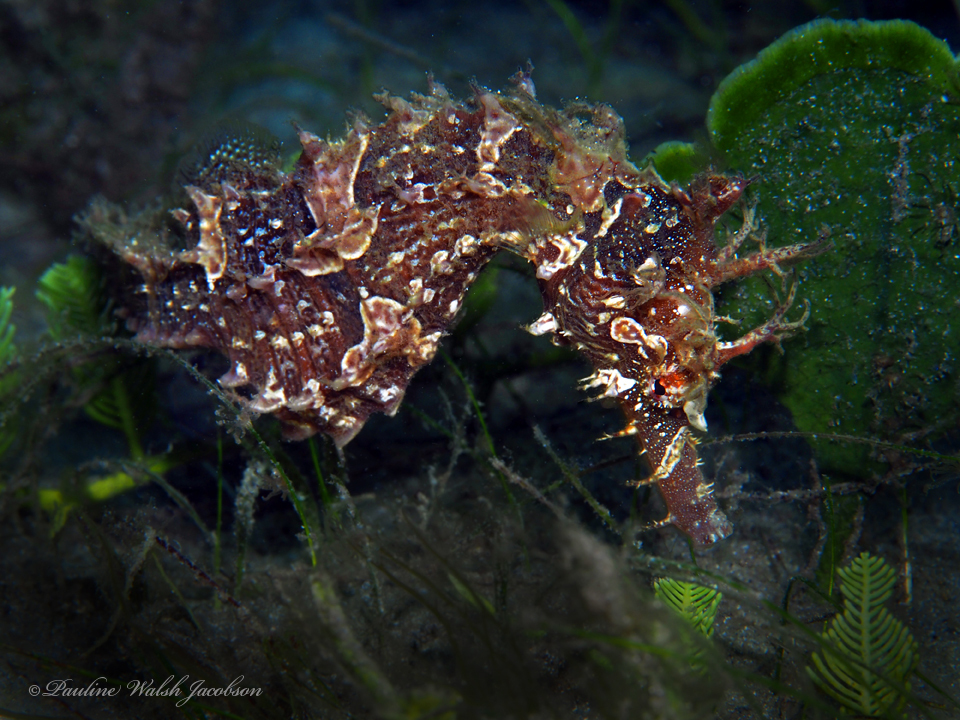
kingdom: Animalia
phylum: Chordata
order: Syngnathiformes
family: Syngnathidae
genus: Hippocampus
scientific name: Hippocampus erectus
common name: Lined seahorse
